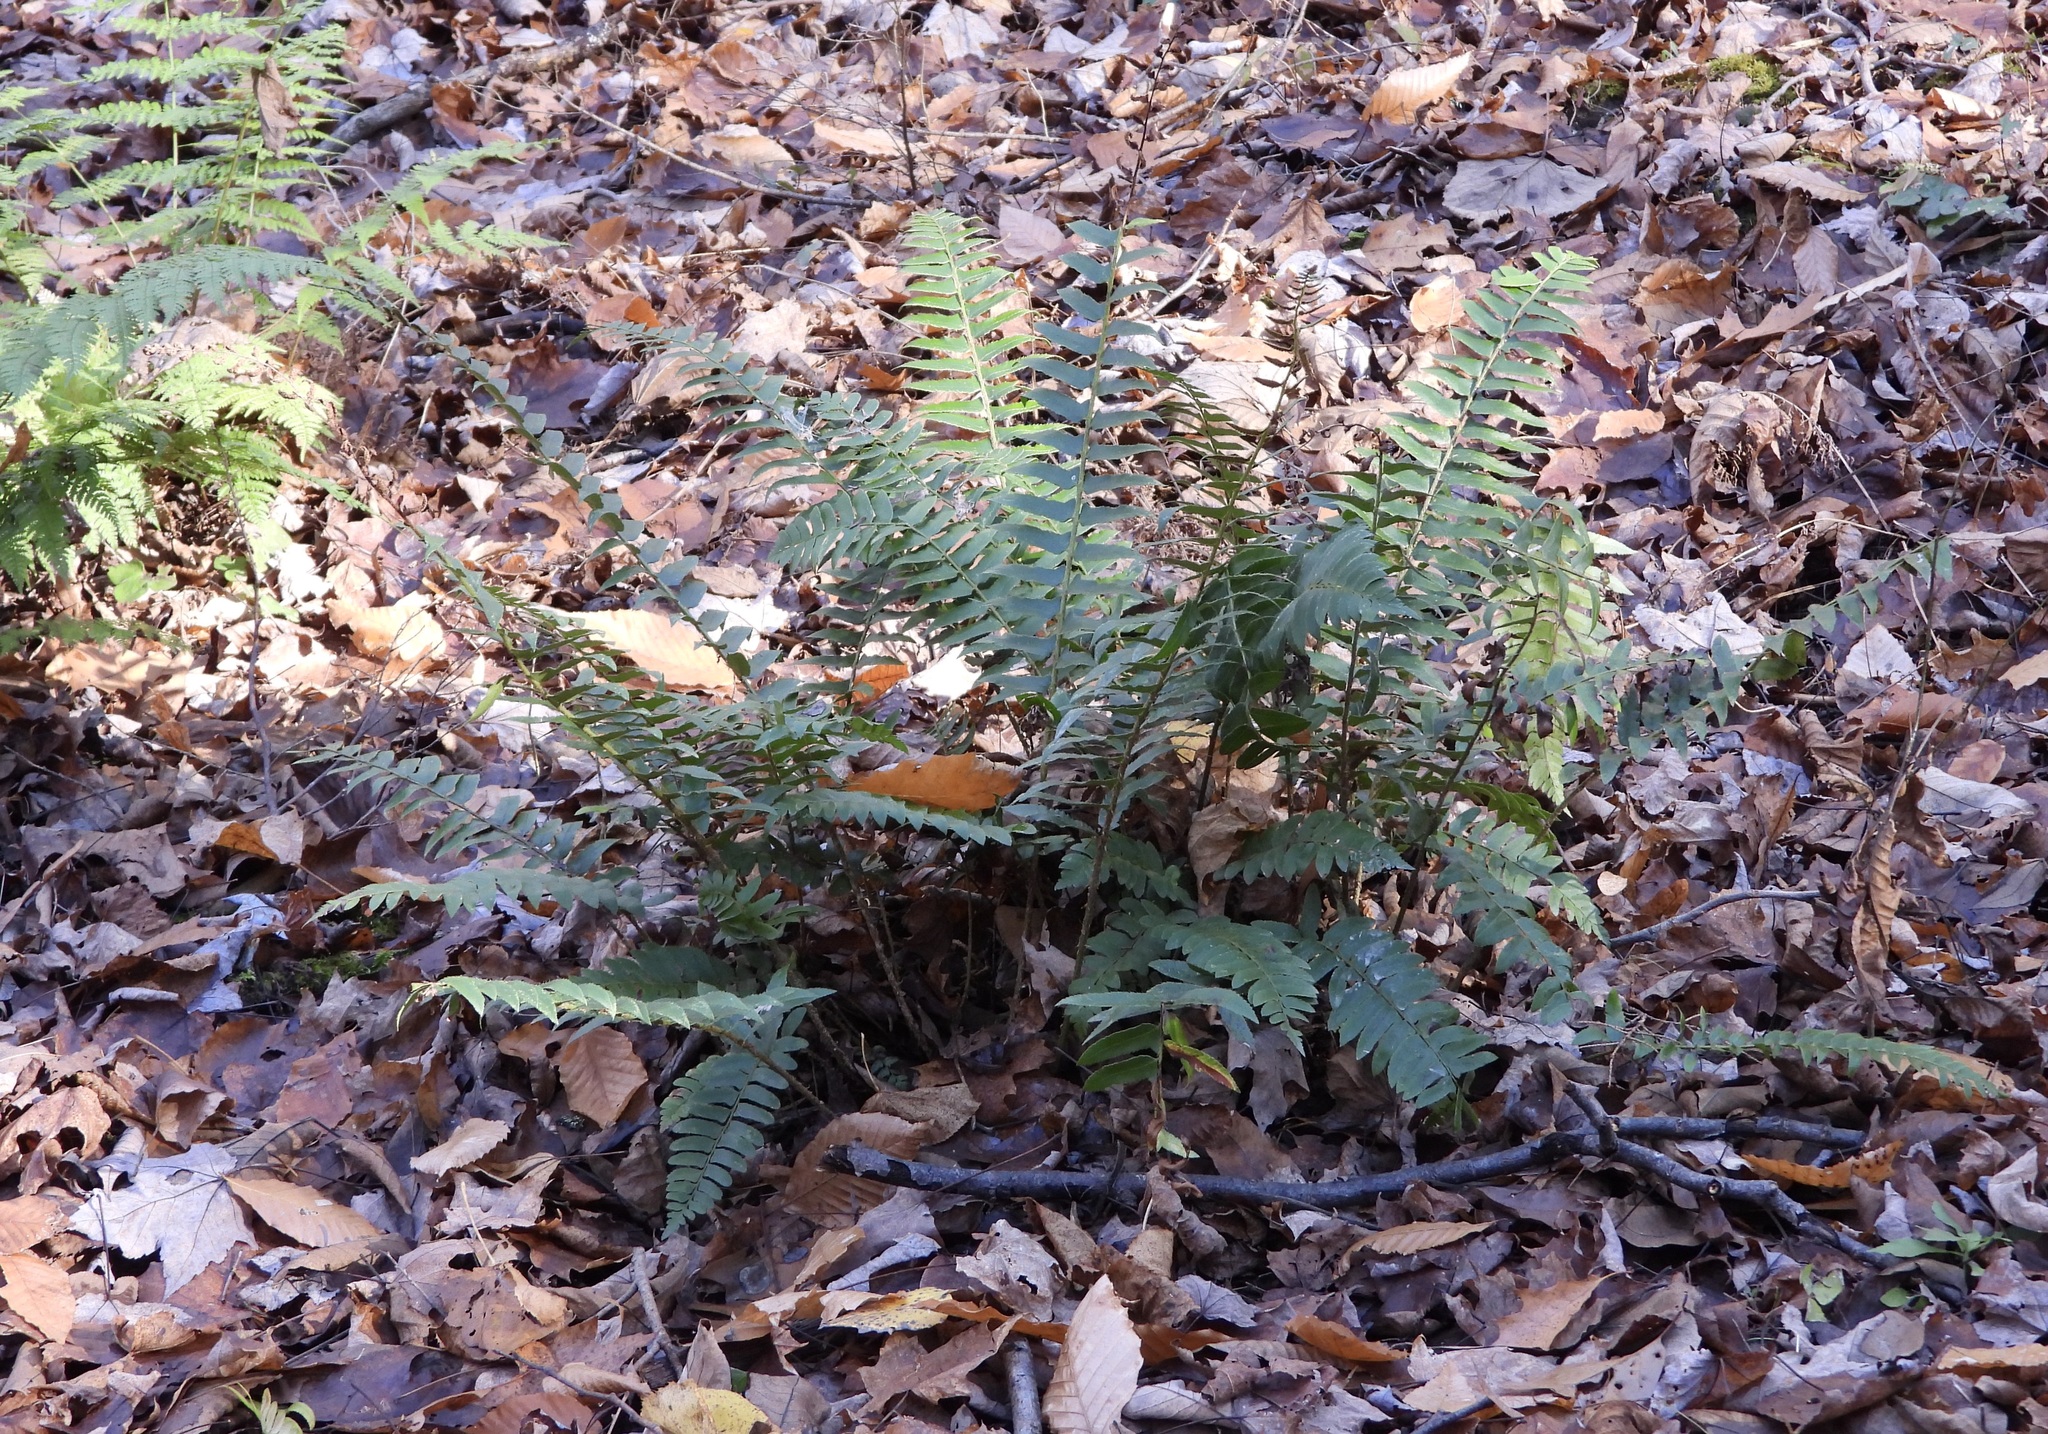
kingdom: Plantae
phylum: Tracheophyta
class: Polypodiopsida
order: Polypodiales
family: Dryopteridaceae
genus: Polystichum
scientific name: Polystichum acrostichoides
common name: Christmas fern
